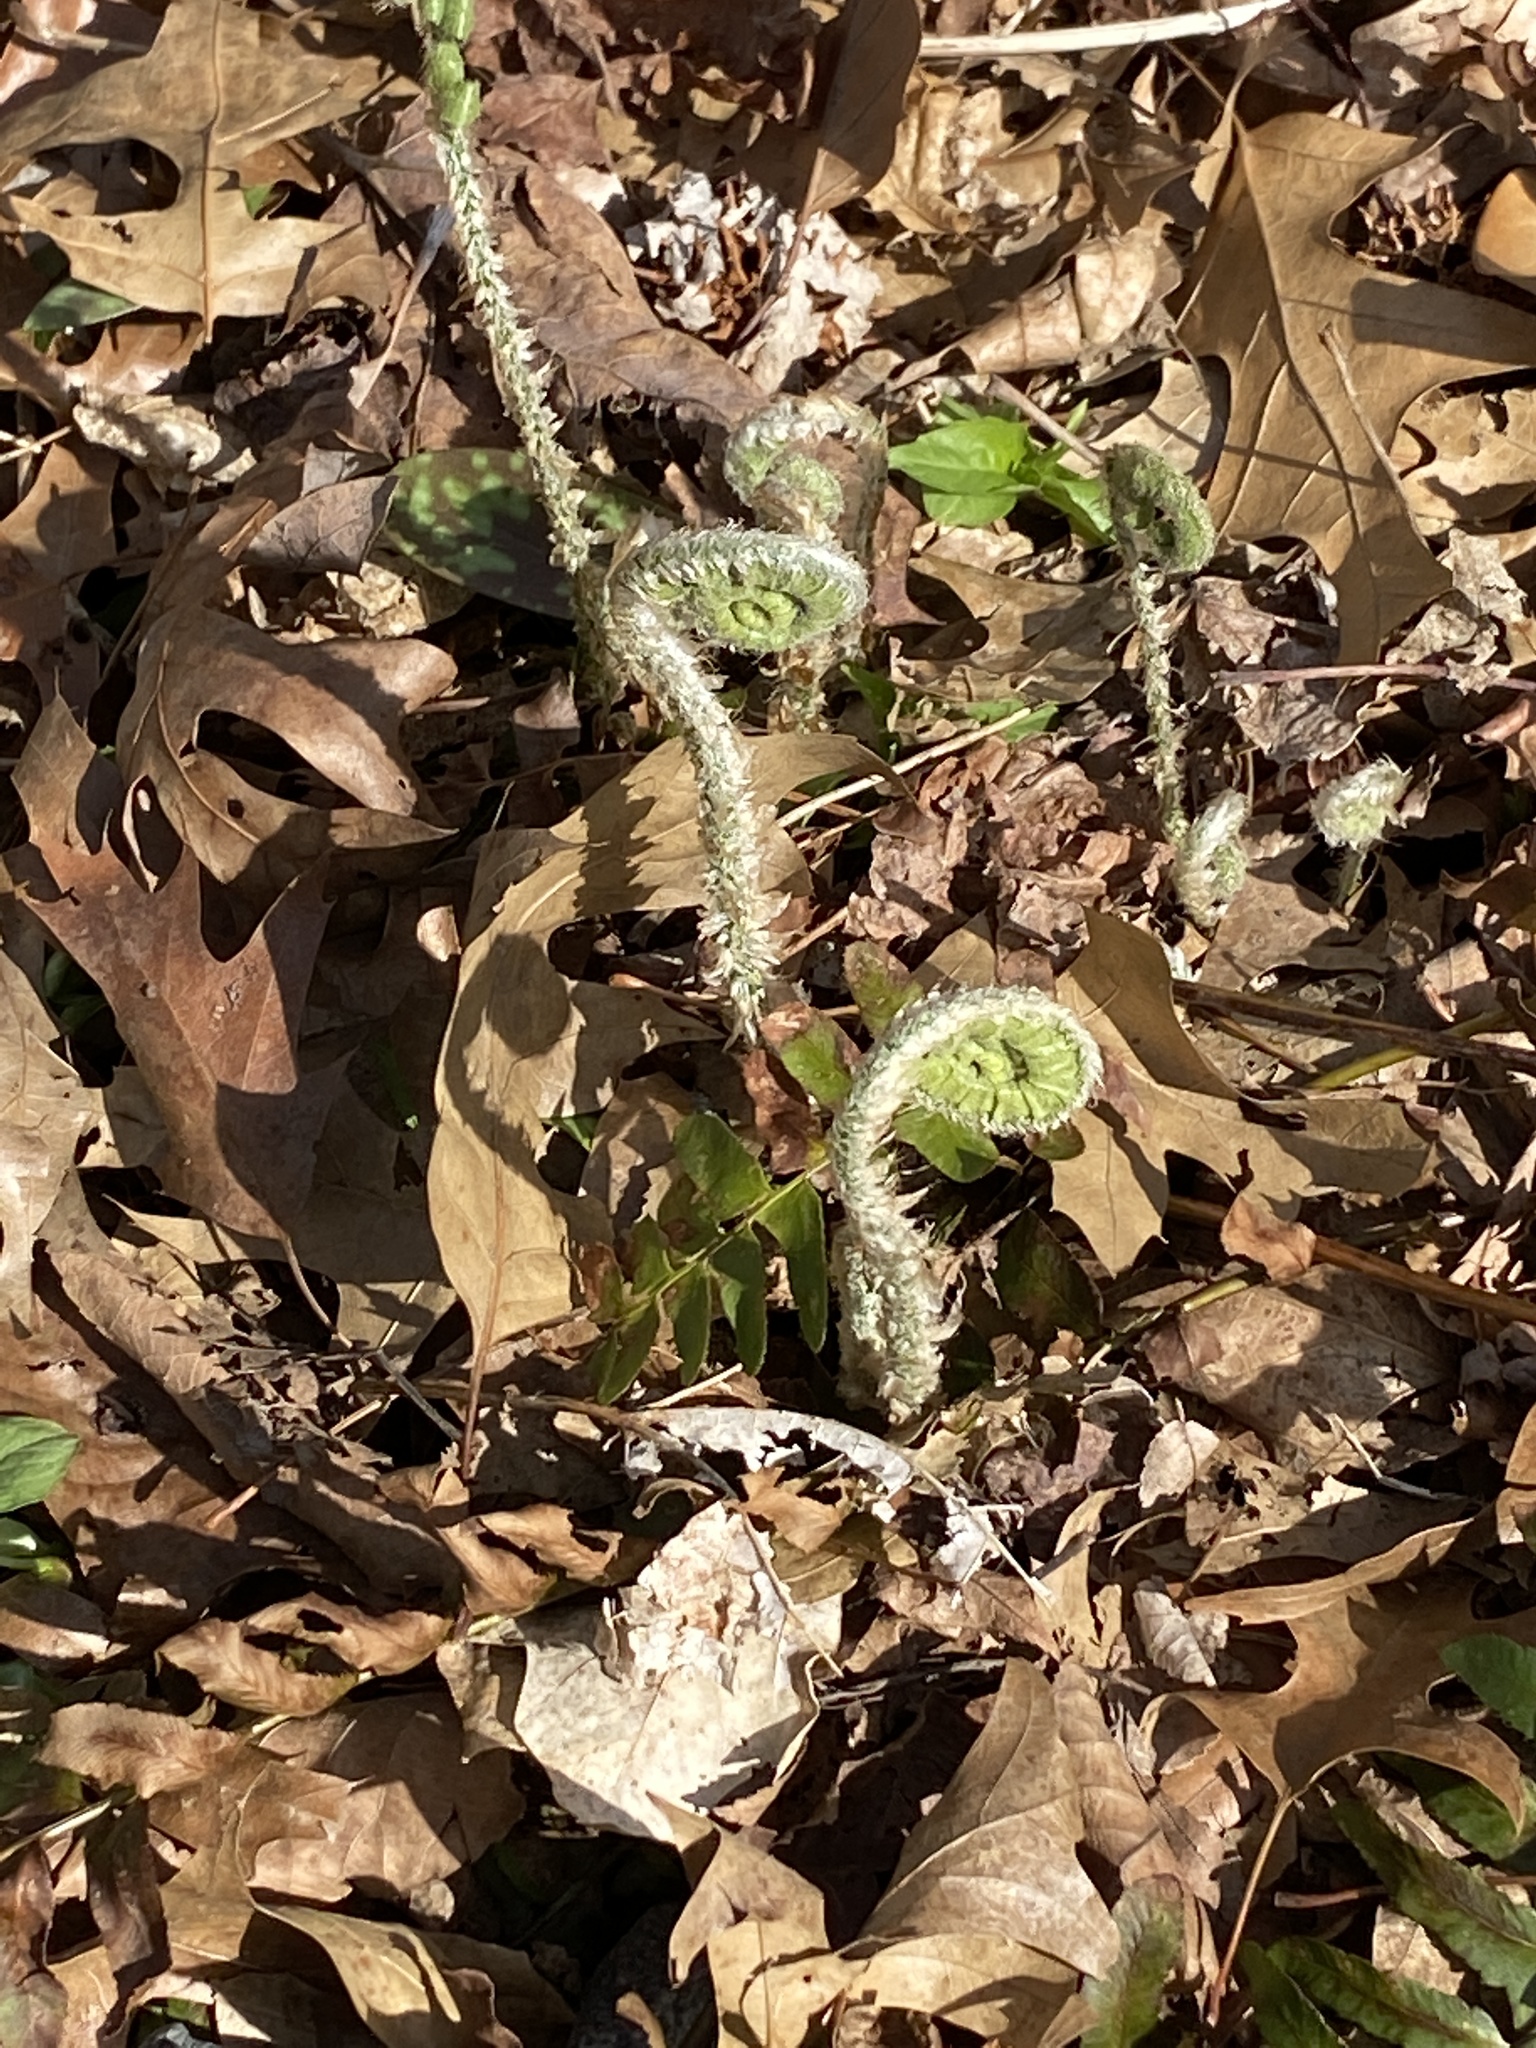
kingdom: Plantae
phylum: Tracheophyta
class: Polypodiopsida
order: Polypodiales
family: Dryopteridaceae
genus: Polystichum
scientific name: Polystichum acrostichoides
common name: Christmas fern
